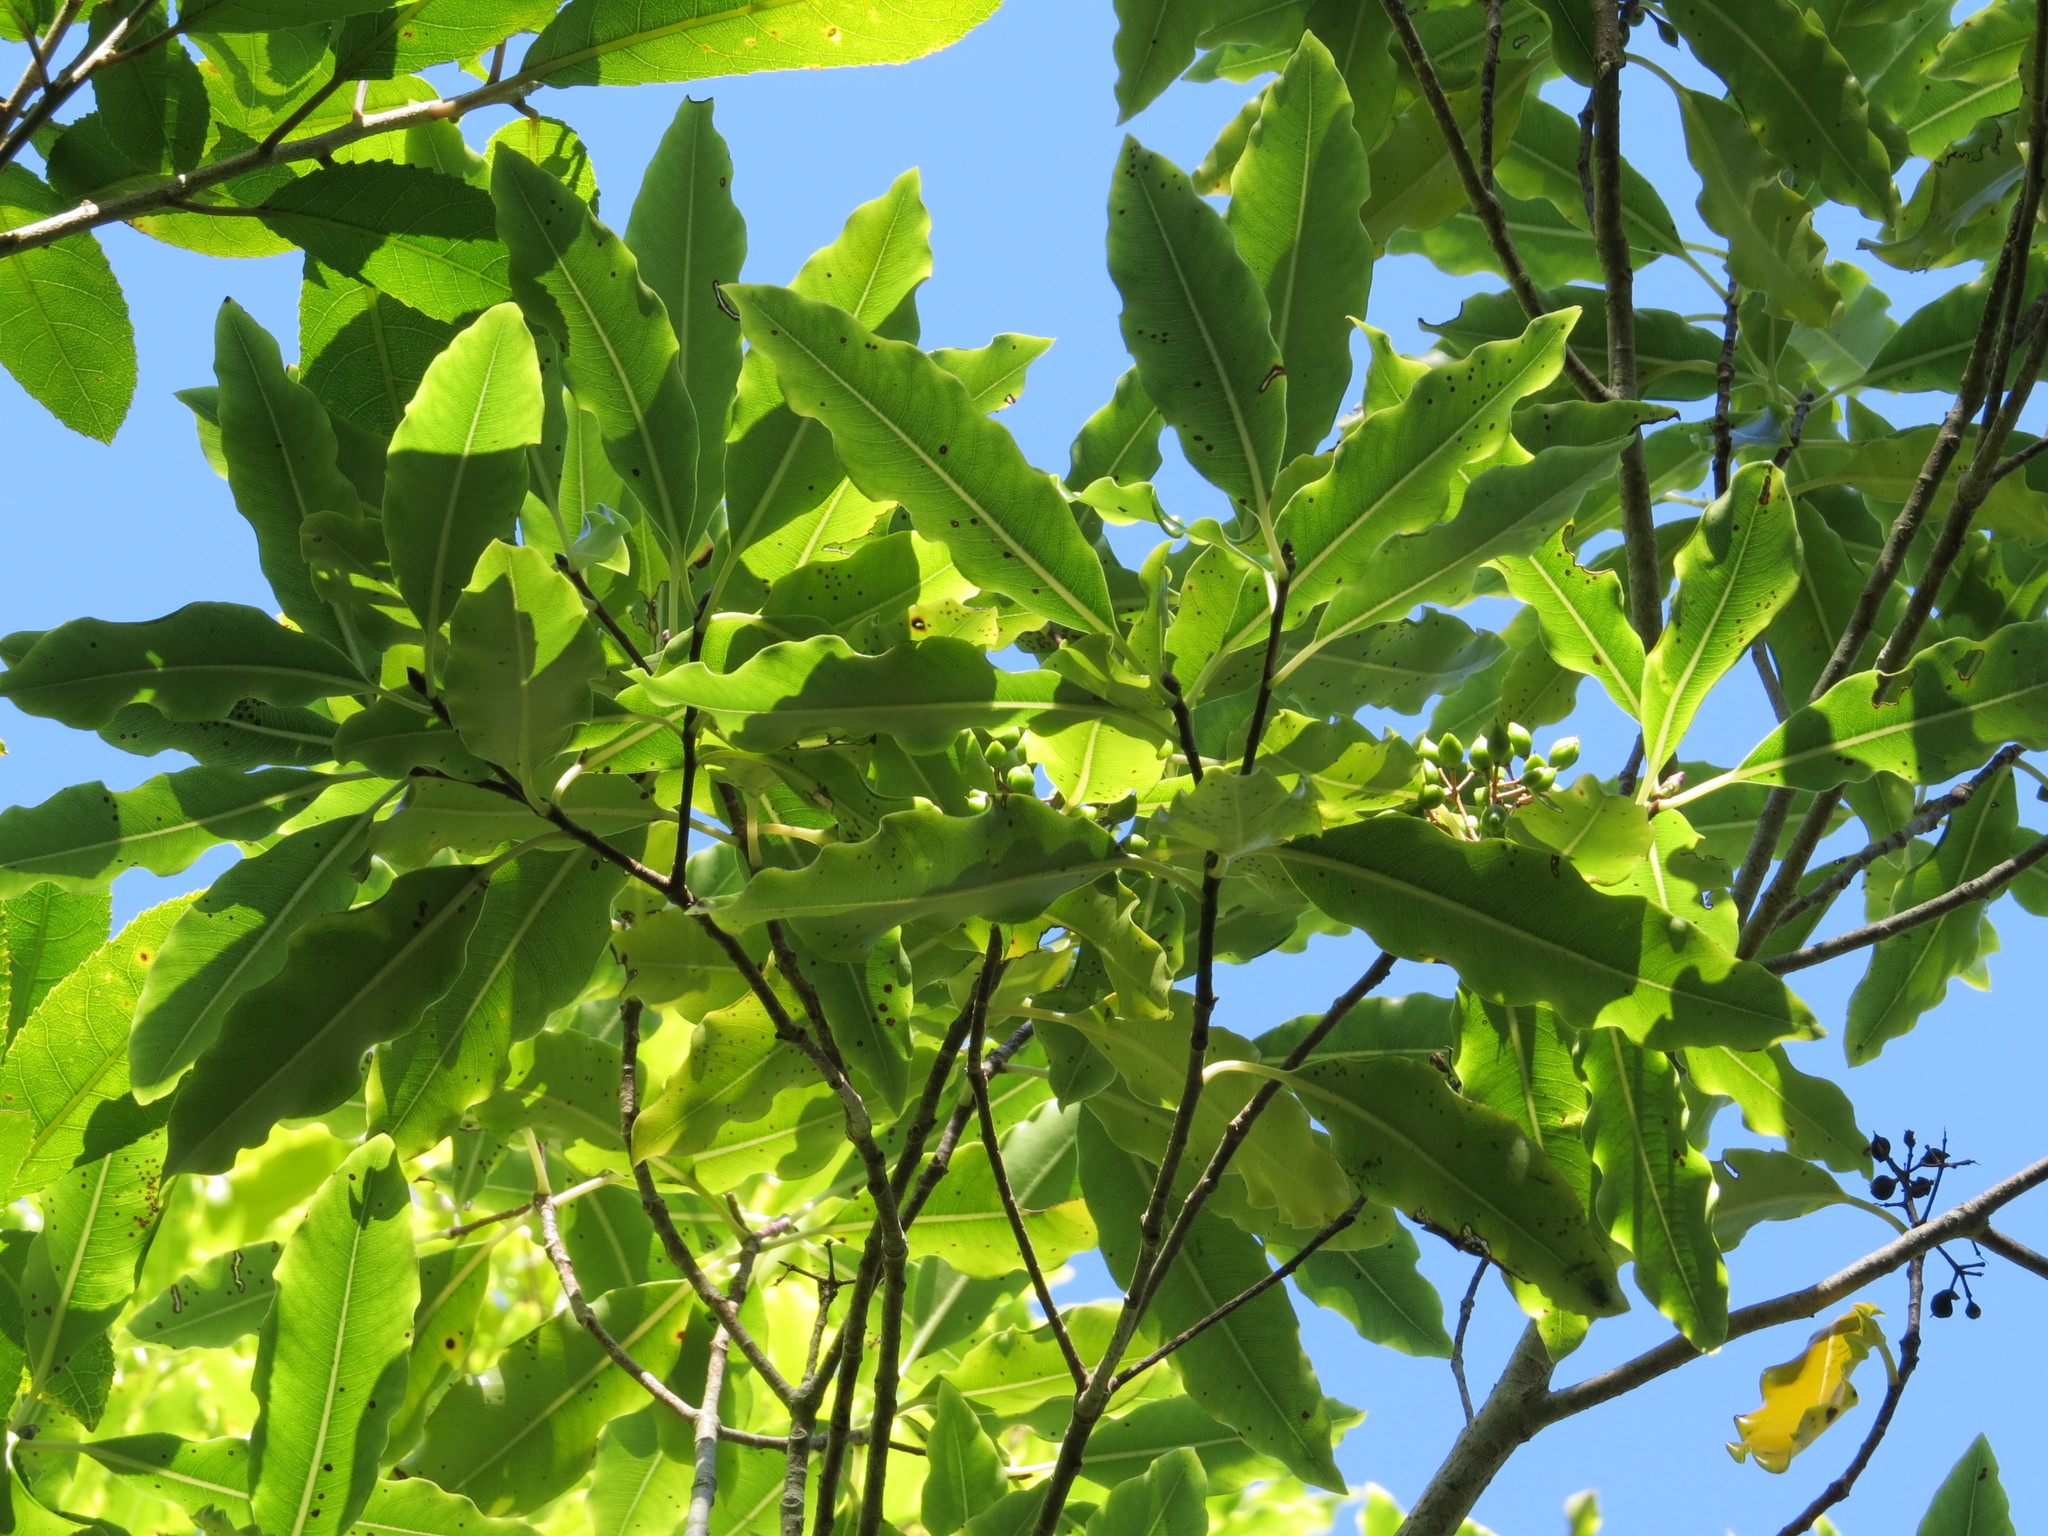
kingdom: Plantae
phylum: Tracheophyta
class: Magnoliopsida
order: Apiales
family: Pittosporaceae
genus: Pittosporum
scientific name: Pittosporum eugenioides
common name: Lemonwood
